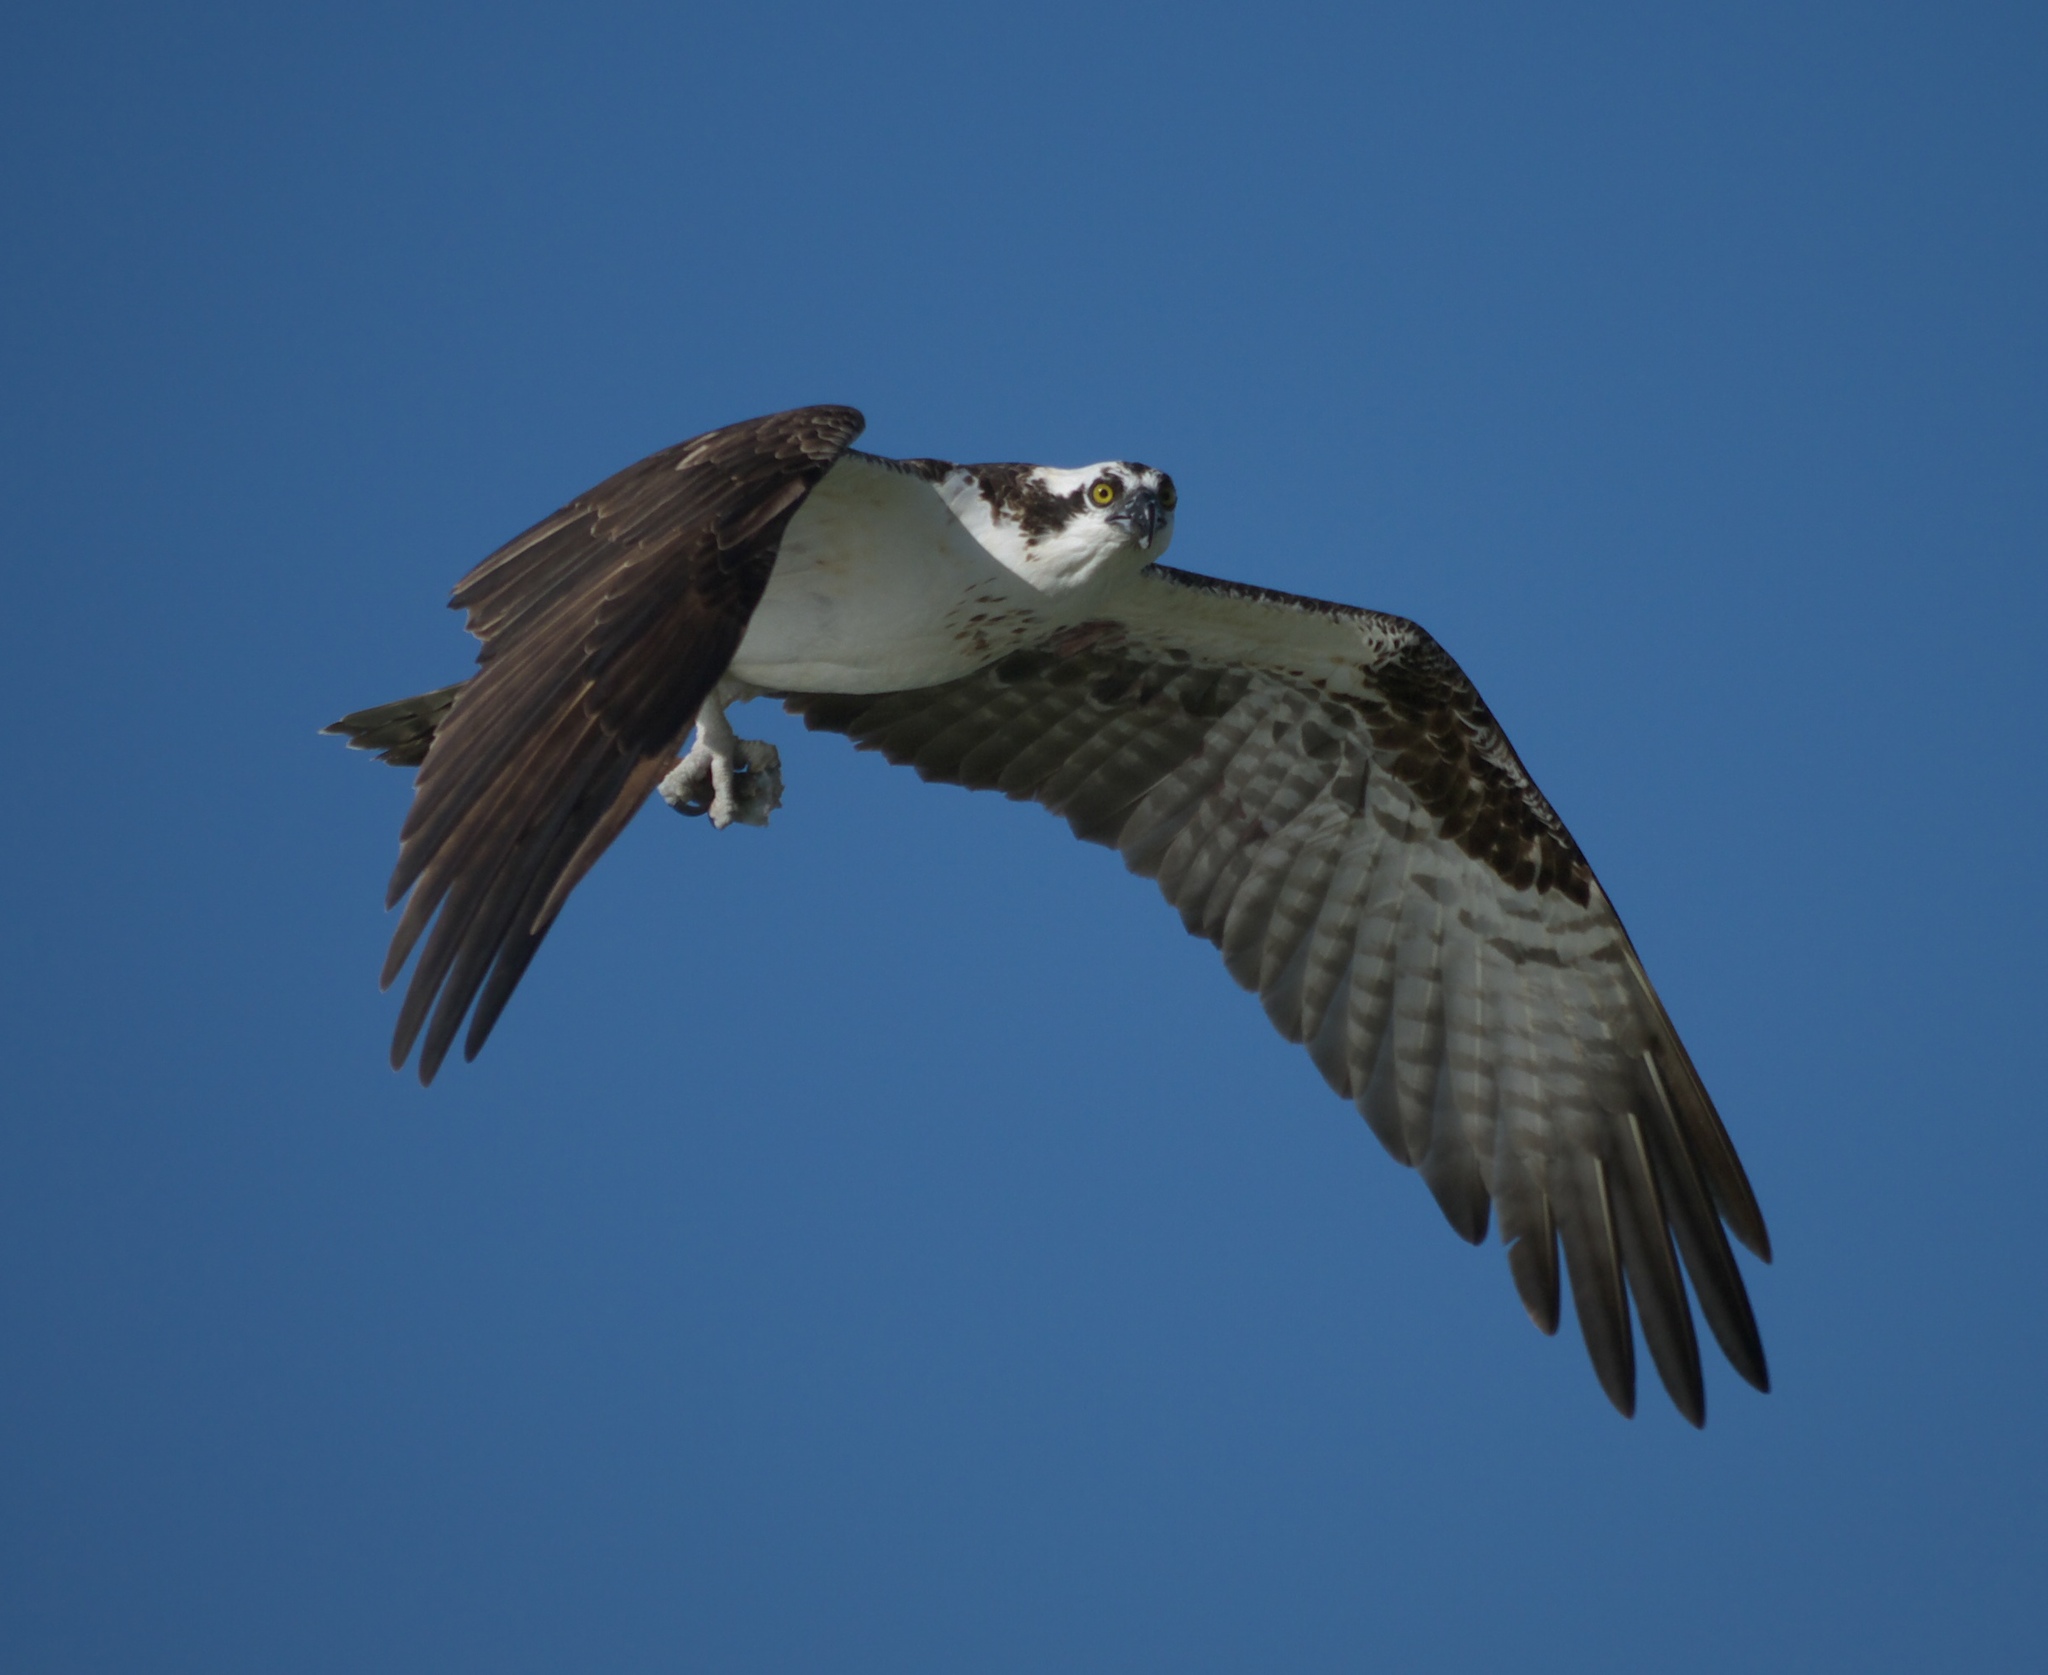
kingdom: Animalia
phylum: Chordata
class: Aves
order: Accipitriformes
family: Pandionidae
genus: Pandion
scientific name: Pandion haliaetus
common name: Osprey
